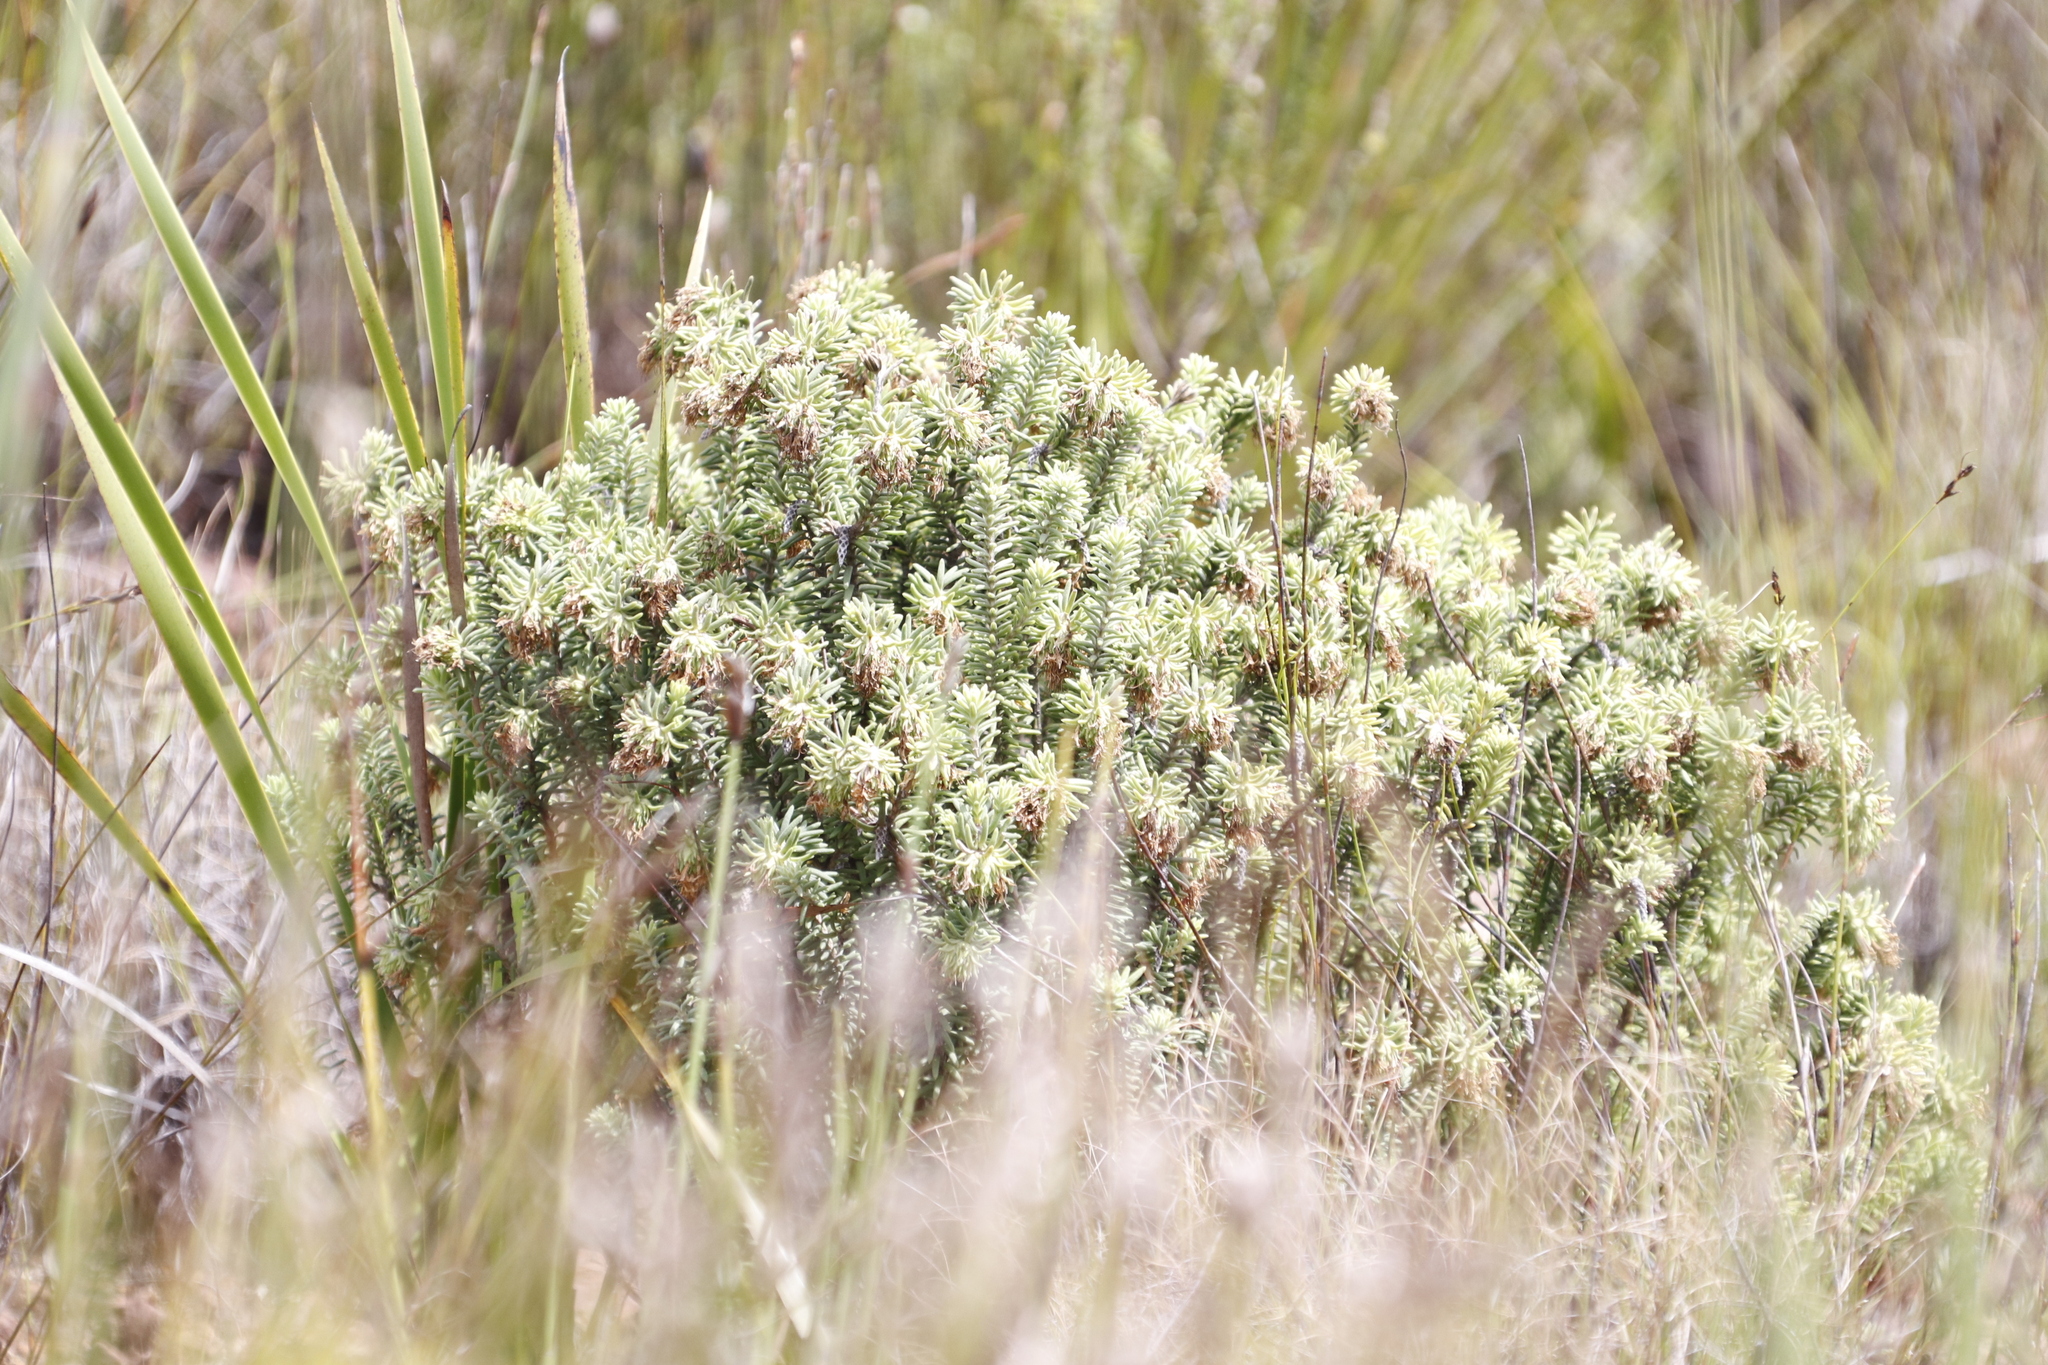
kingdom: Plantae
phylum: Tracheophyta
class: Magnoliopsida
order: Lamiales
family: Stilbaceae
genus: Campylostachys
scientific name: Campylostachys cernua
